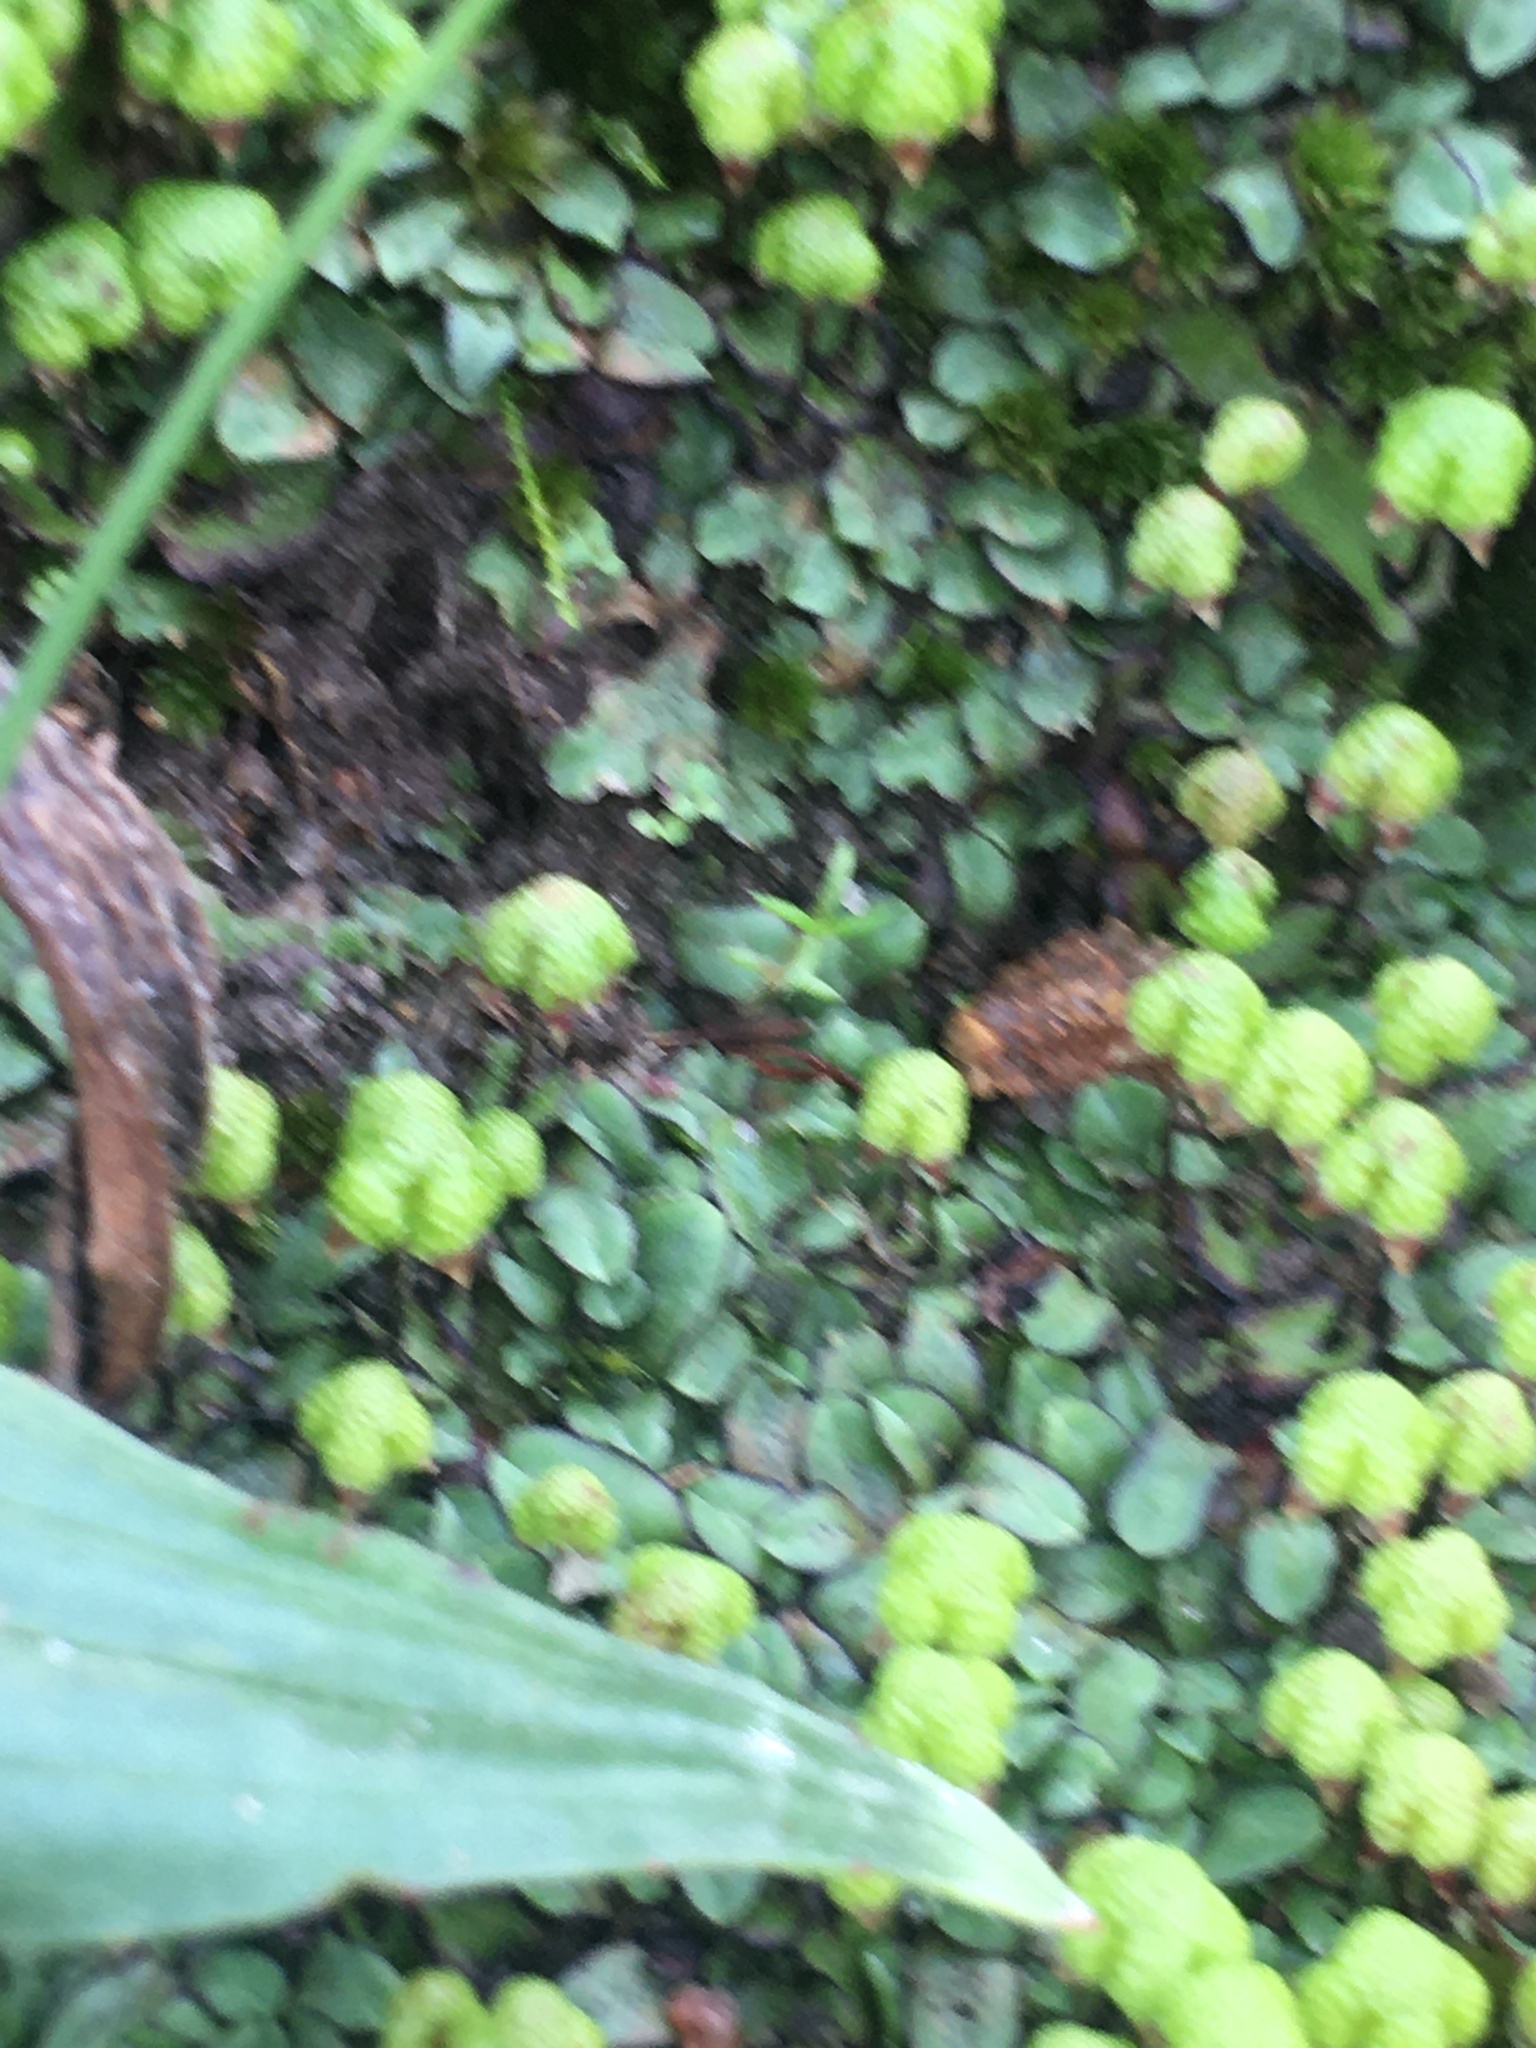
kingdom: Plantae
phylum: Marchantiophyta
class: Marchantiopsida
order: Marchantiales
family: Aytoniaceae
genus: Asterella
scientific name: Asterella marginata
